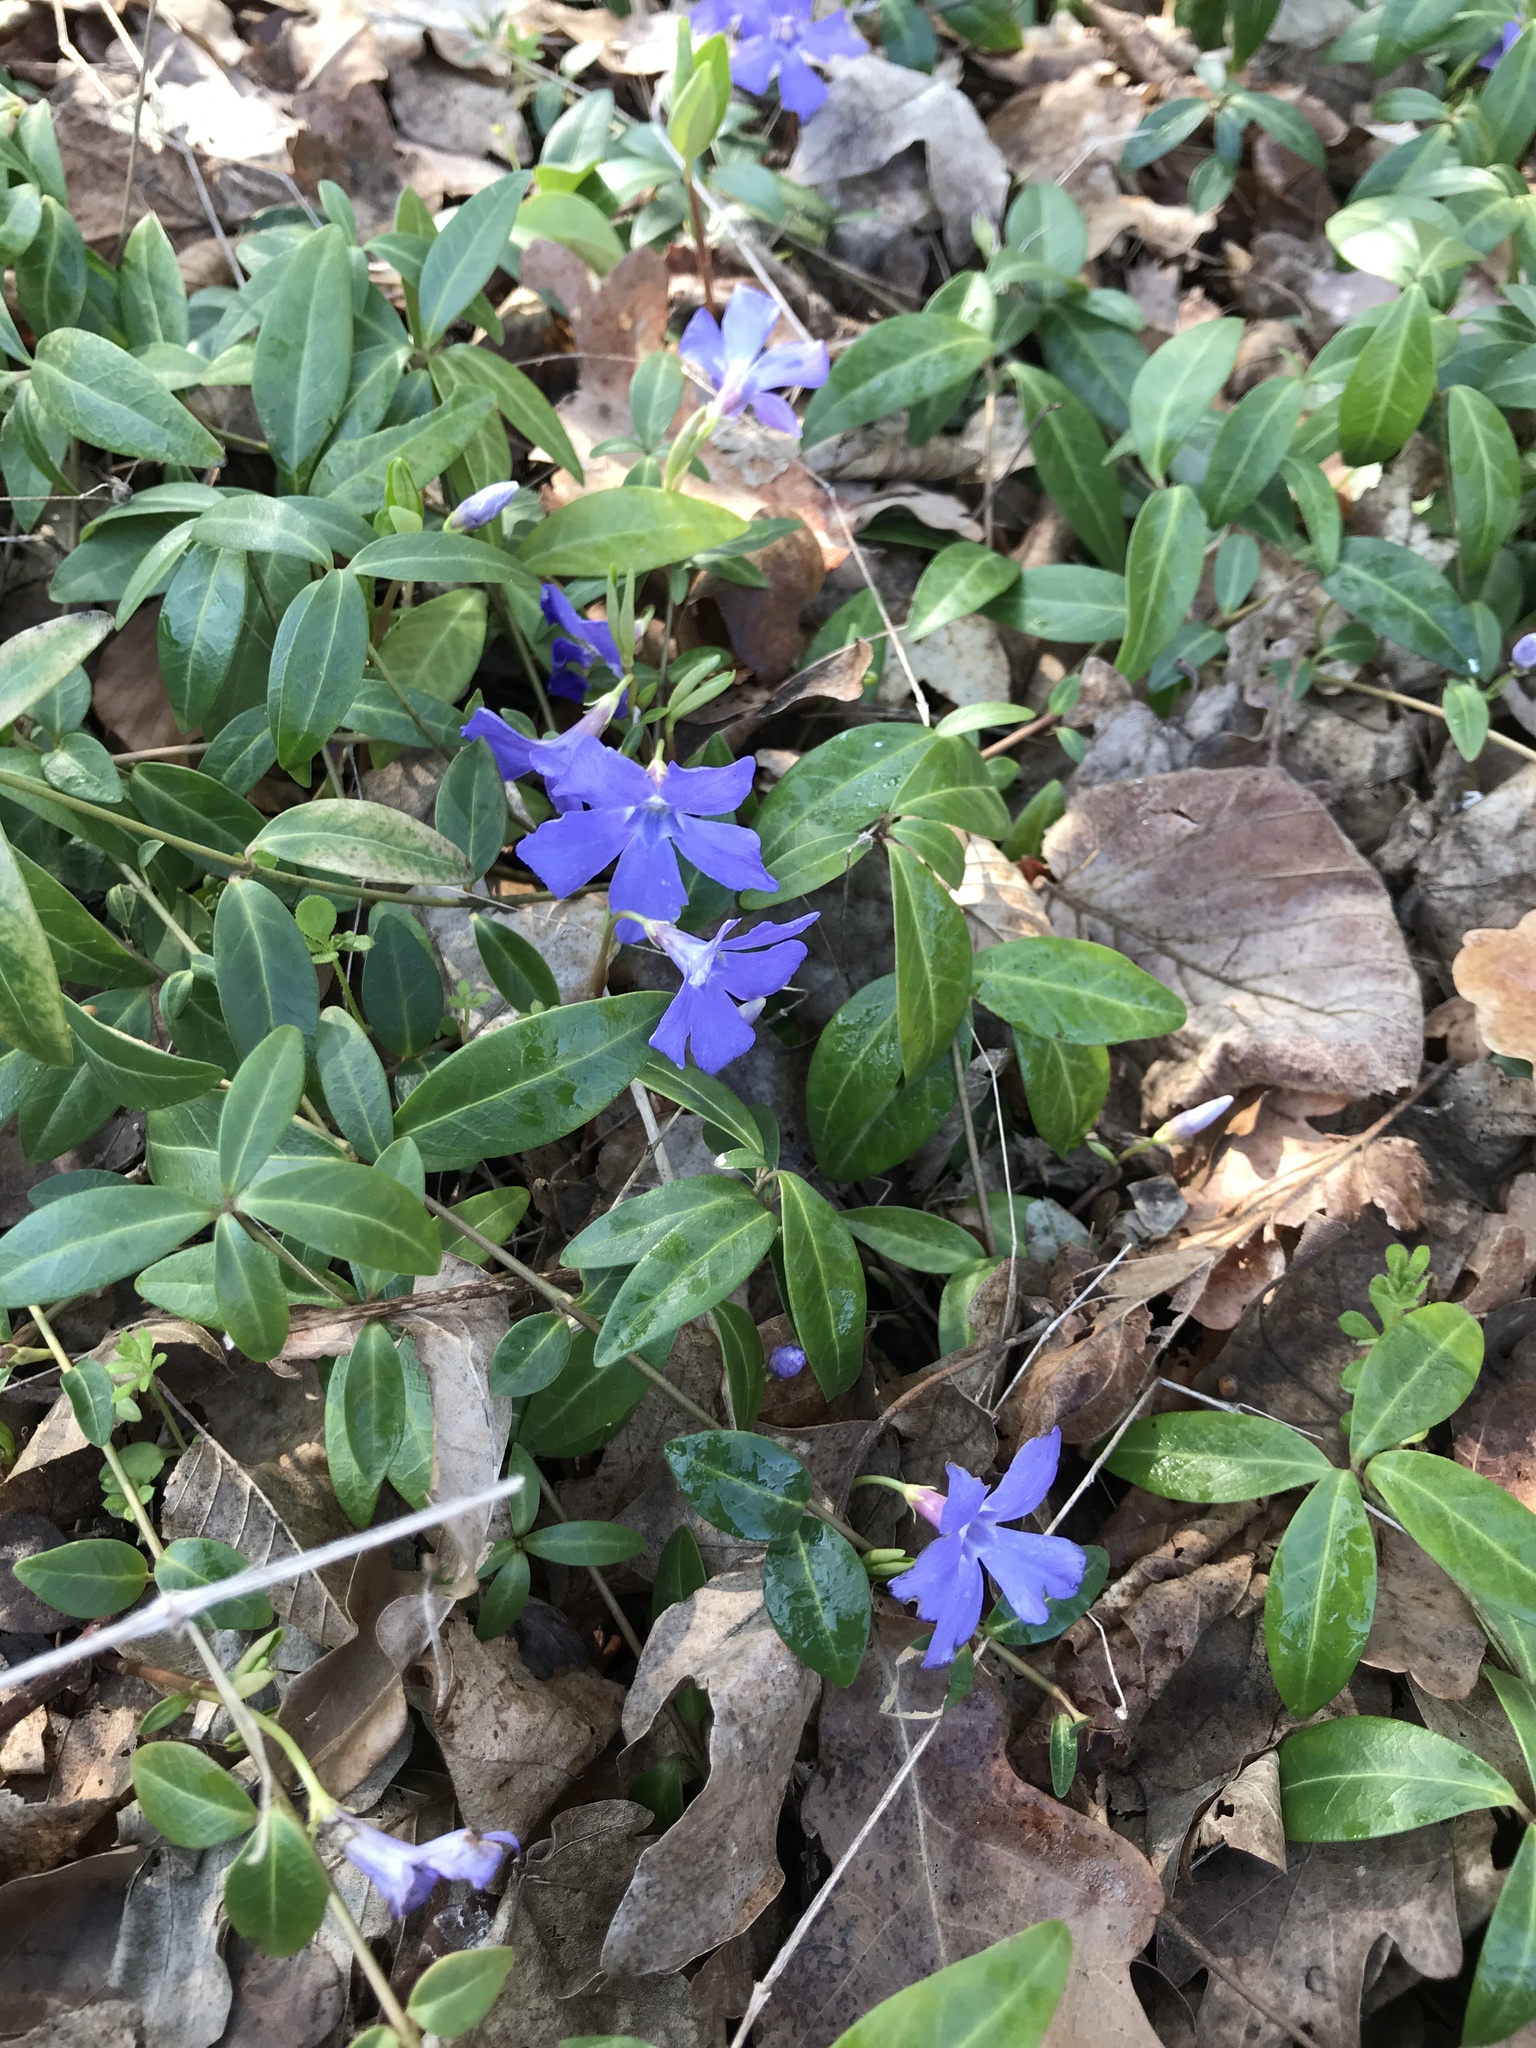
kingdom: Plantae
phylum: Tracheophyta
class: Magnoliopsida
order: Gentianales
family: Apocynaceae
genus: Vinca
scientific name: Vinca minor
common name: Lesser periwinkle
